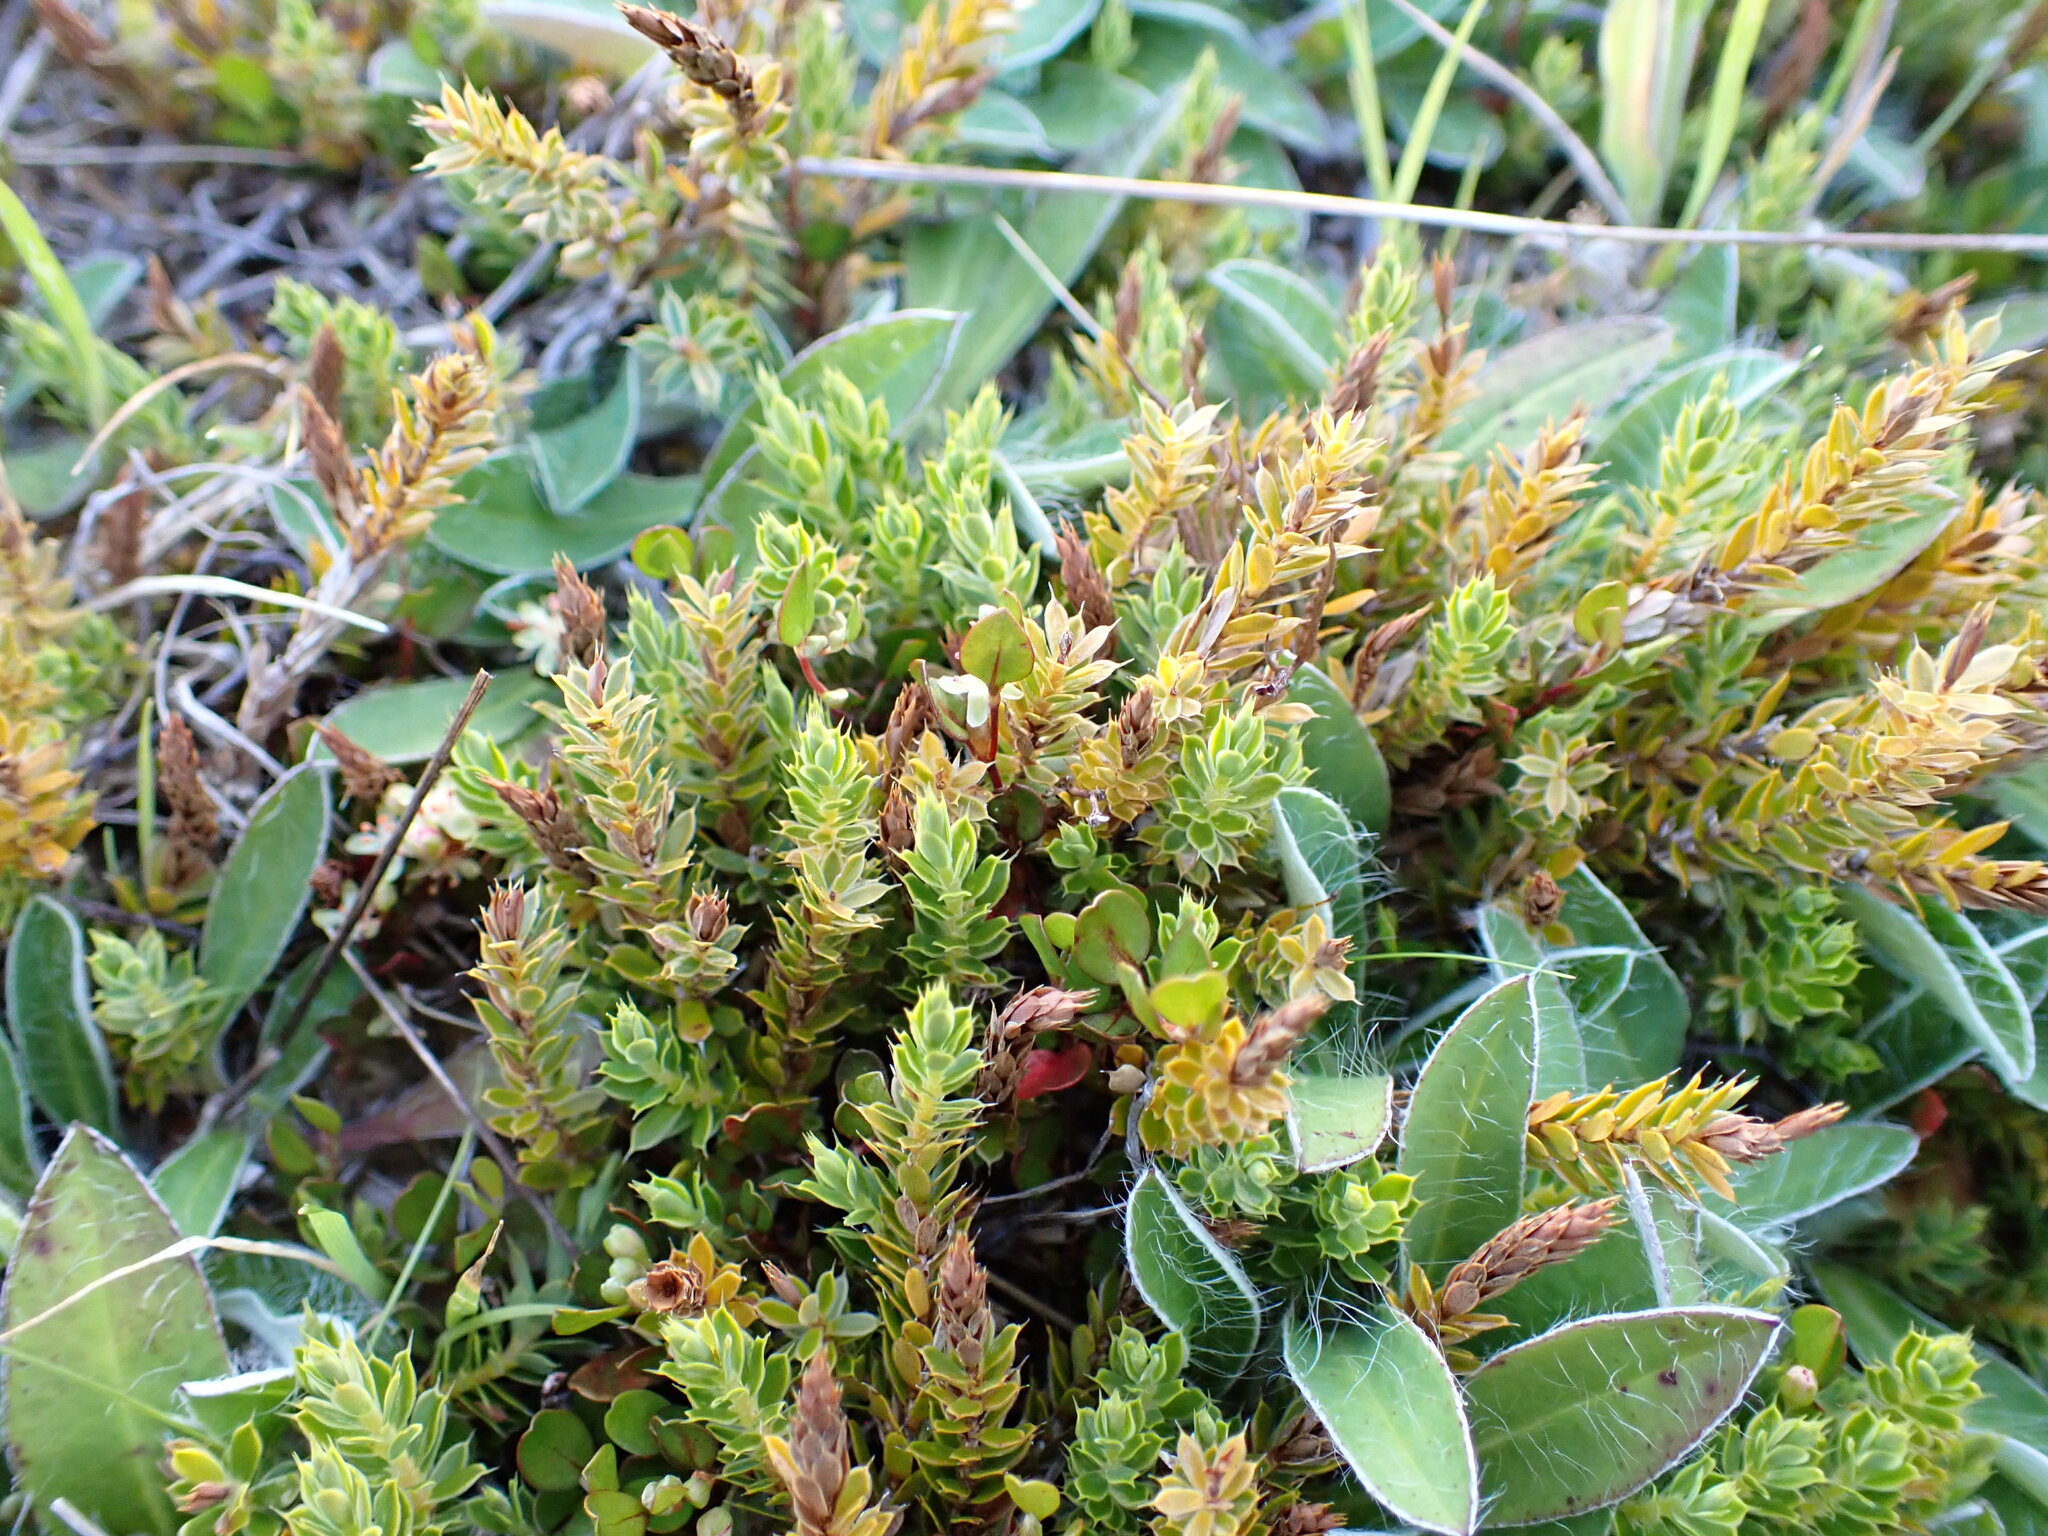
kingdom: Plantae
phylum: Tracheophyta
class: Magnoliopsida
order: Ericales
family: Ericaceae
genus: Styphelia
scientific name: Styphelia nesophila
